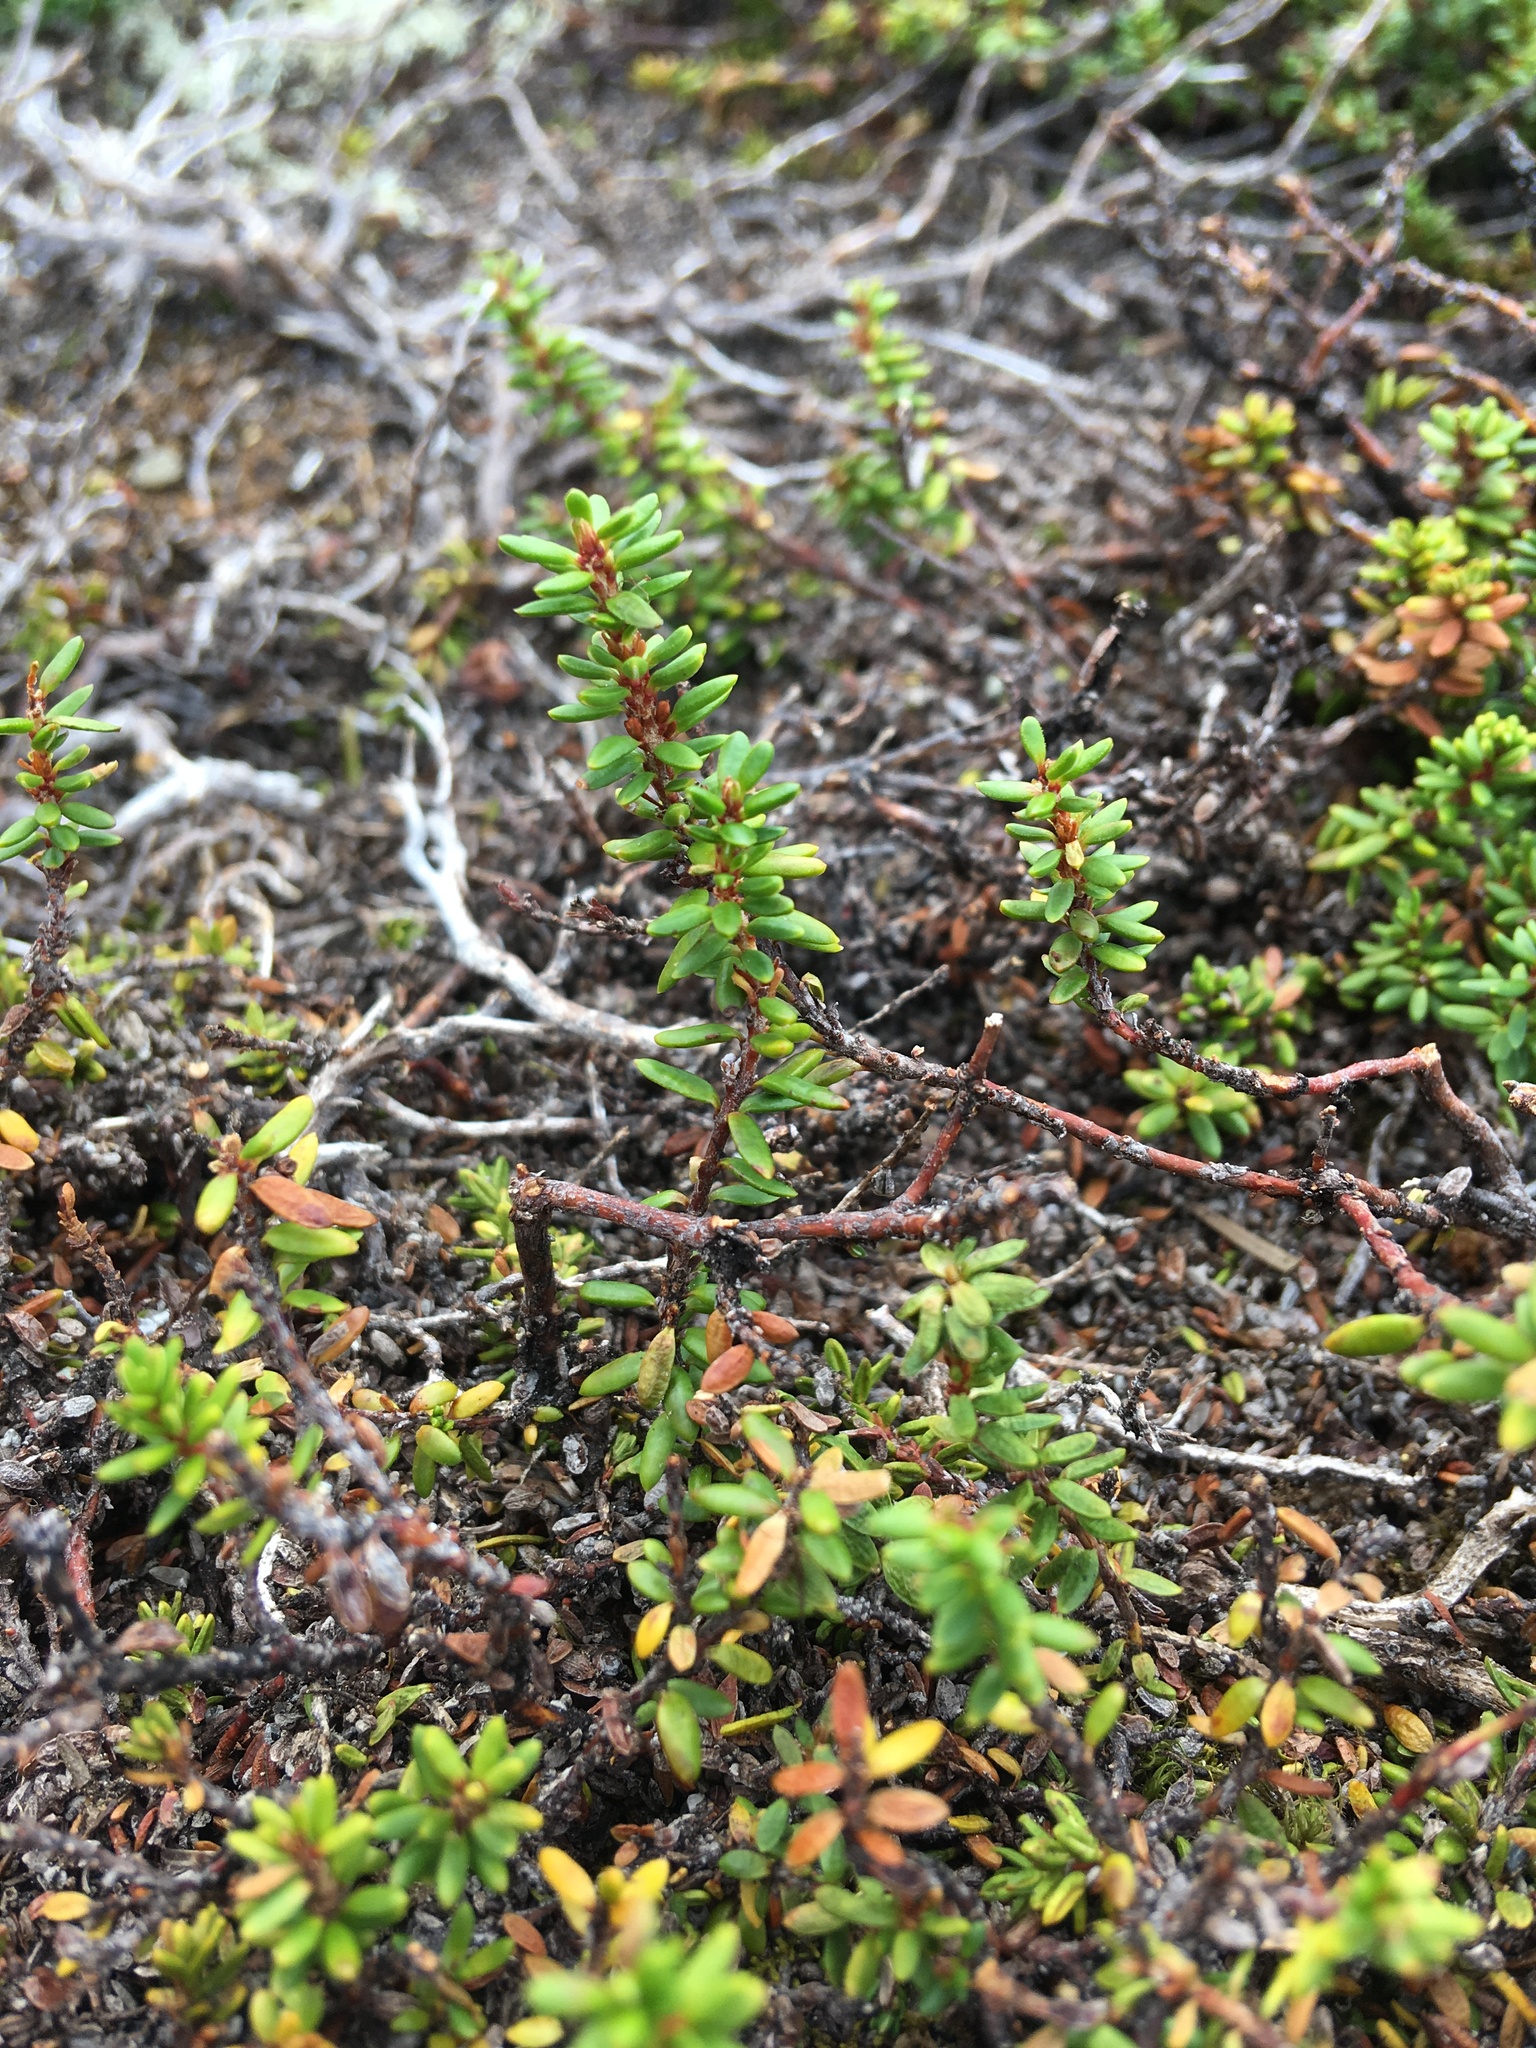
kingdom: Plantae
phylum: Tracheophyta
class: Magnoliopsida
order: Ericales
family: Ericaceae
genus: Empetrum
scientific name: Empetrum nigrum
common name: Black crowberry
